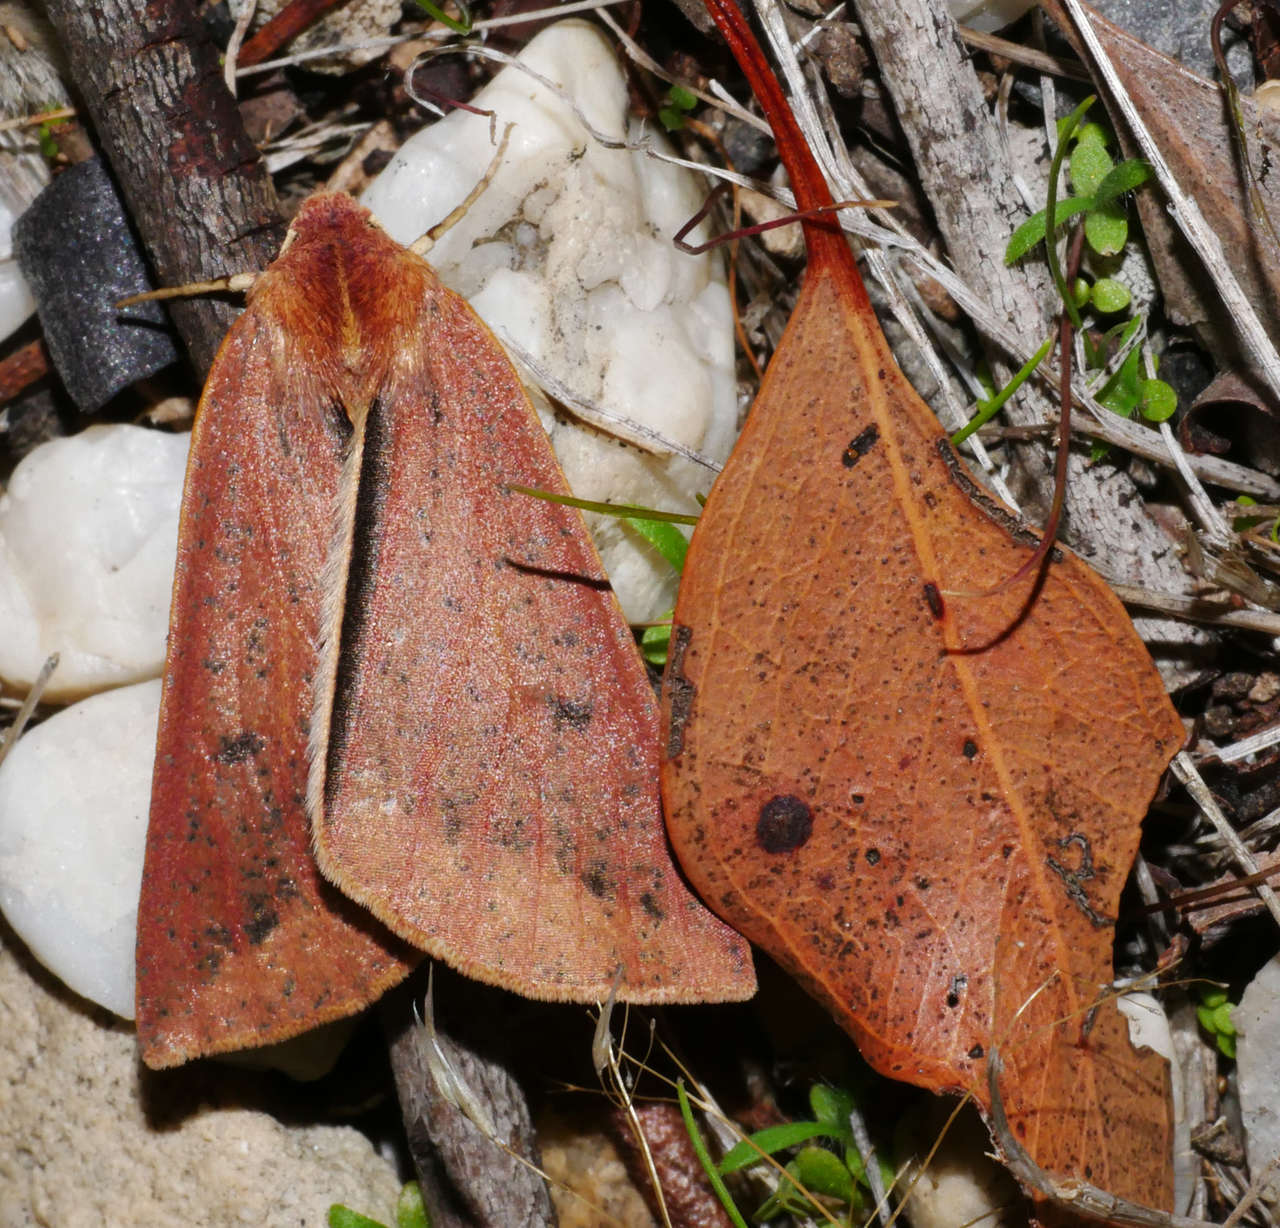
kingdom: Animalia
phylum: Arthropoda
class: Insecta
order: Lepidoptera
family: Geometridae
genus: Cycloprorodes
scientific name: Cycloprorodes melanoxysta
